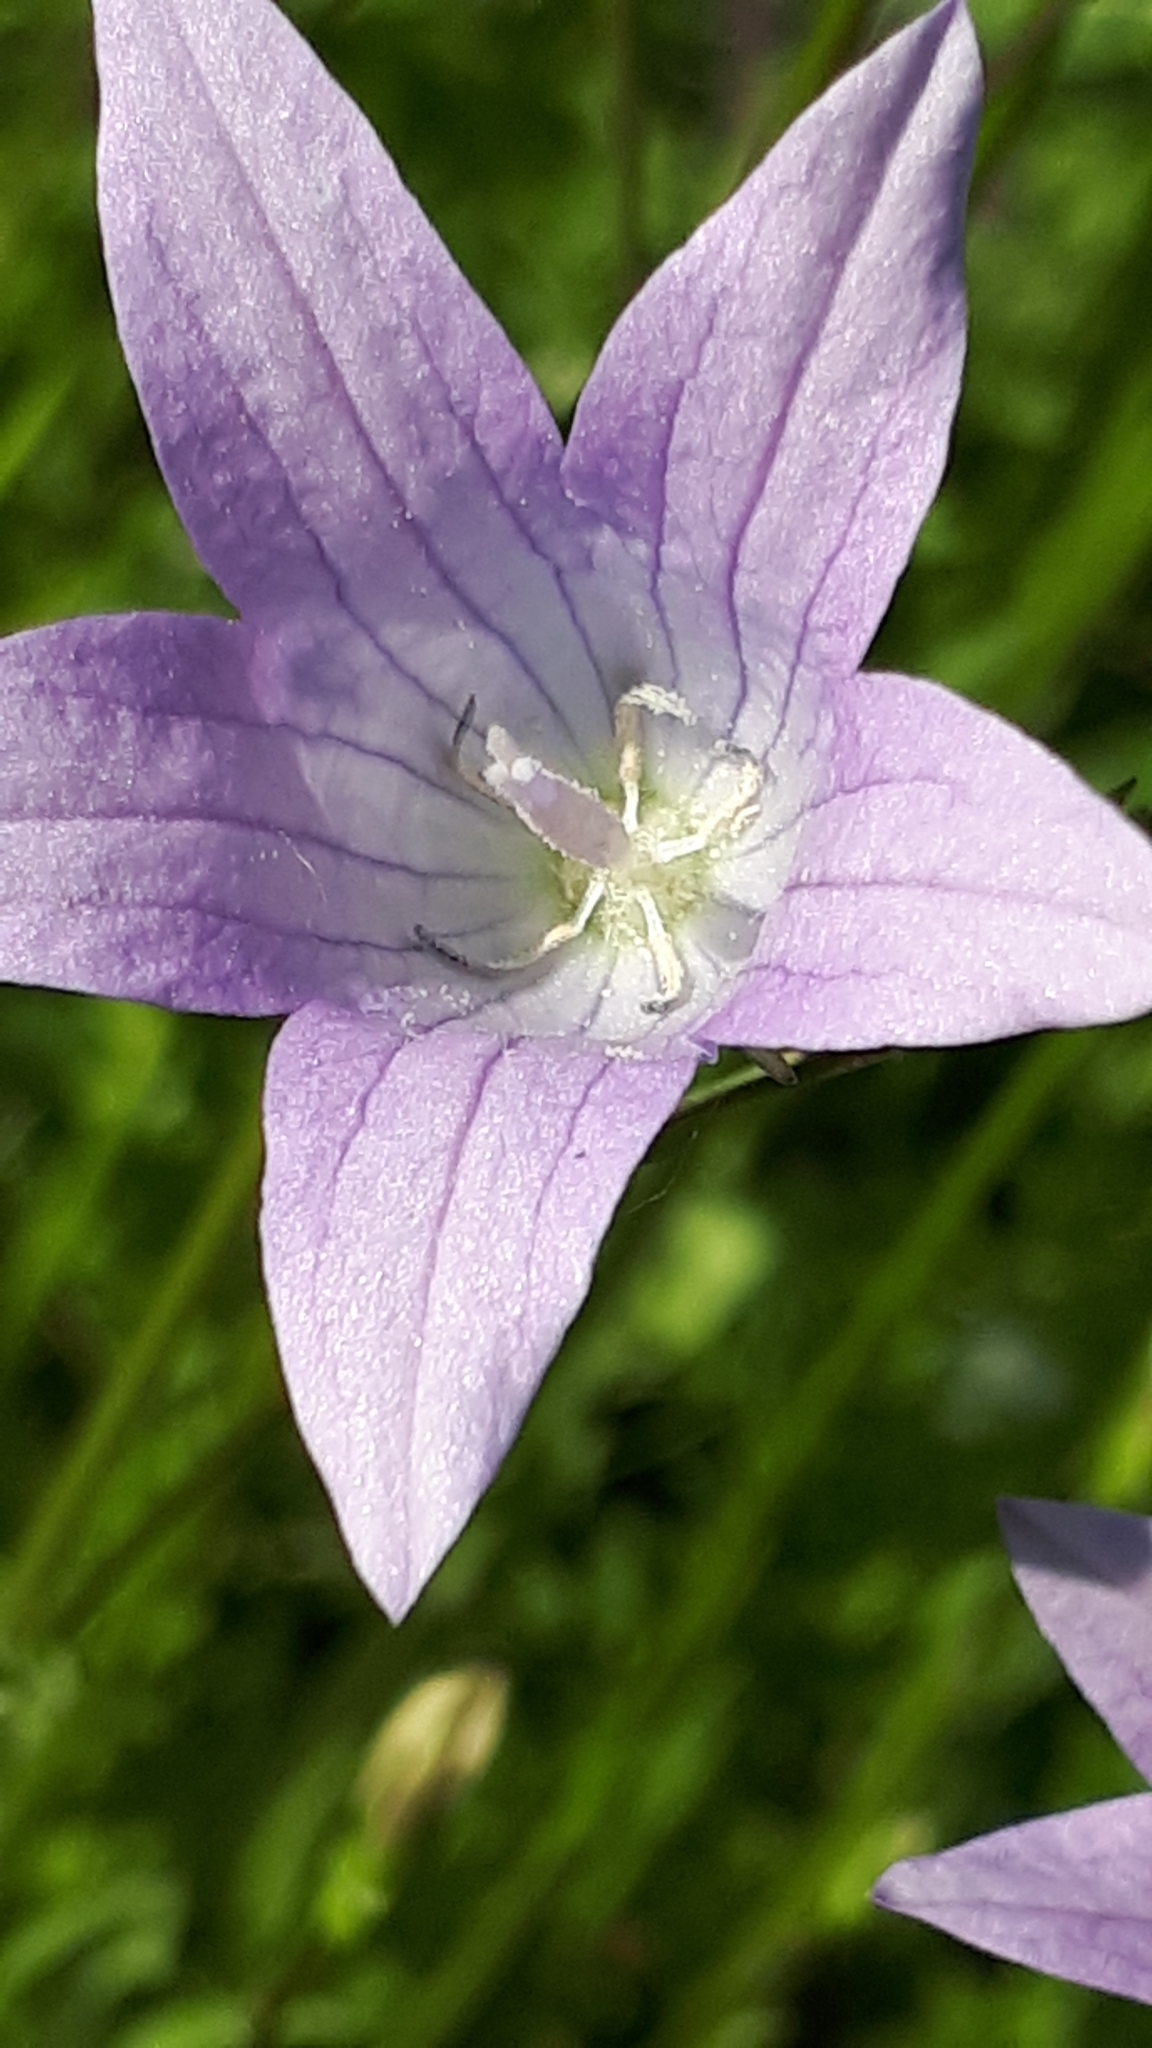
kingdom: Plantae
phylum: Tracheophyta
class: Magnoliopsida
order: Asterales
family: Campanulaceae
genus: Campanula
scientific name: Campanula patula
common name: Spreading bellflower
